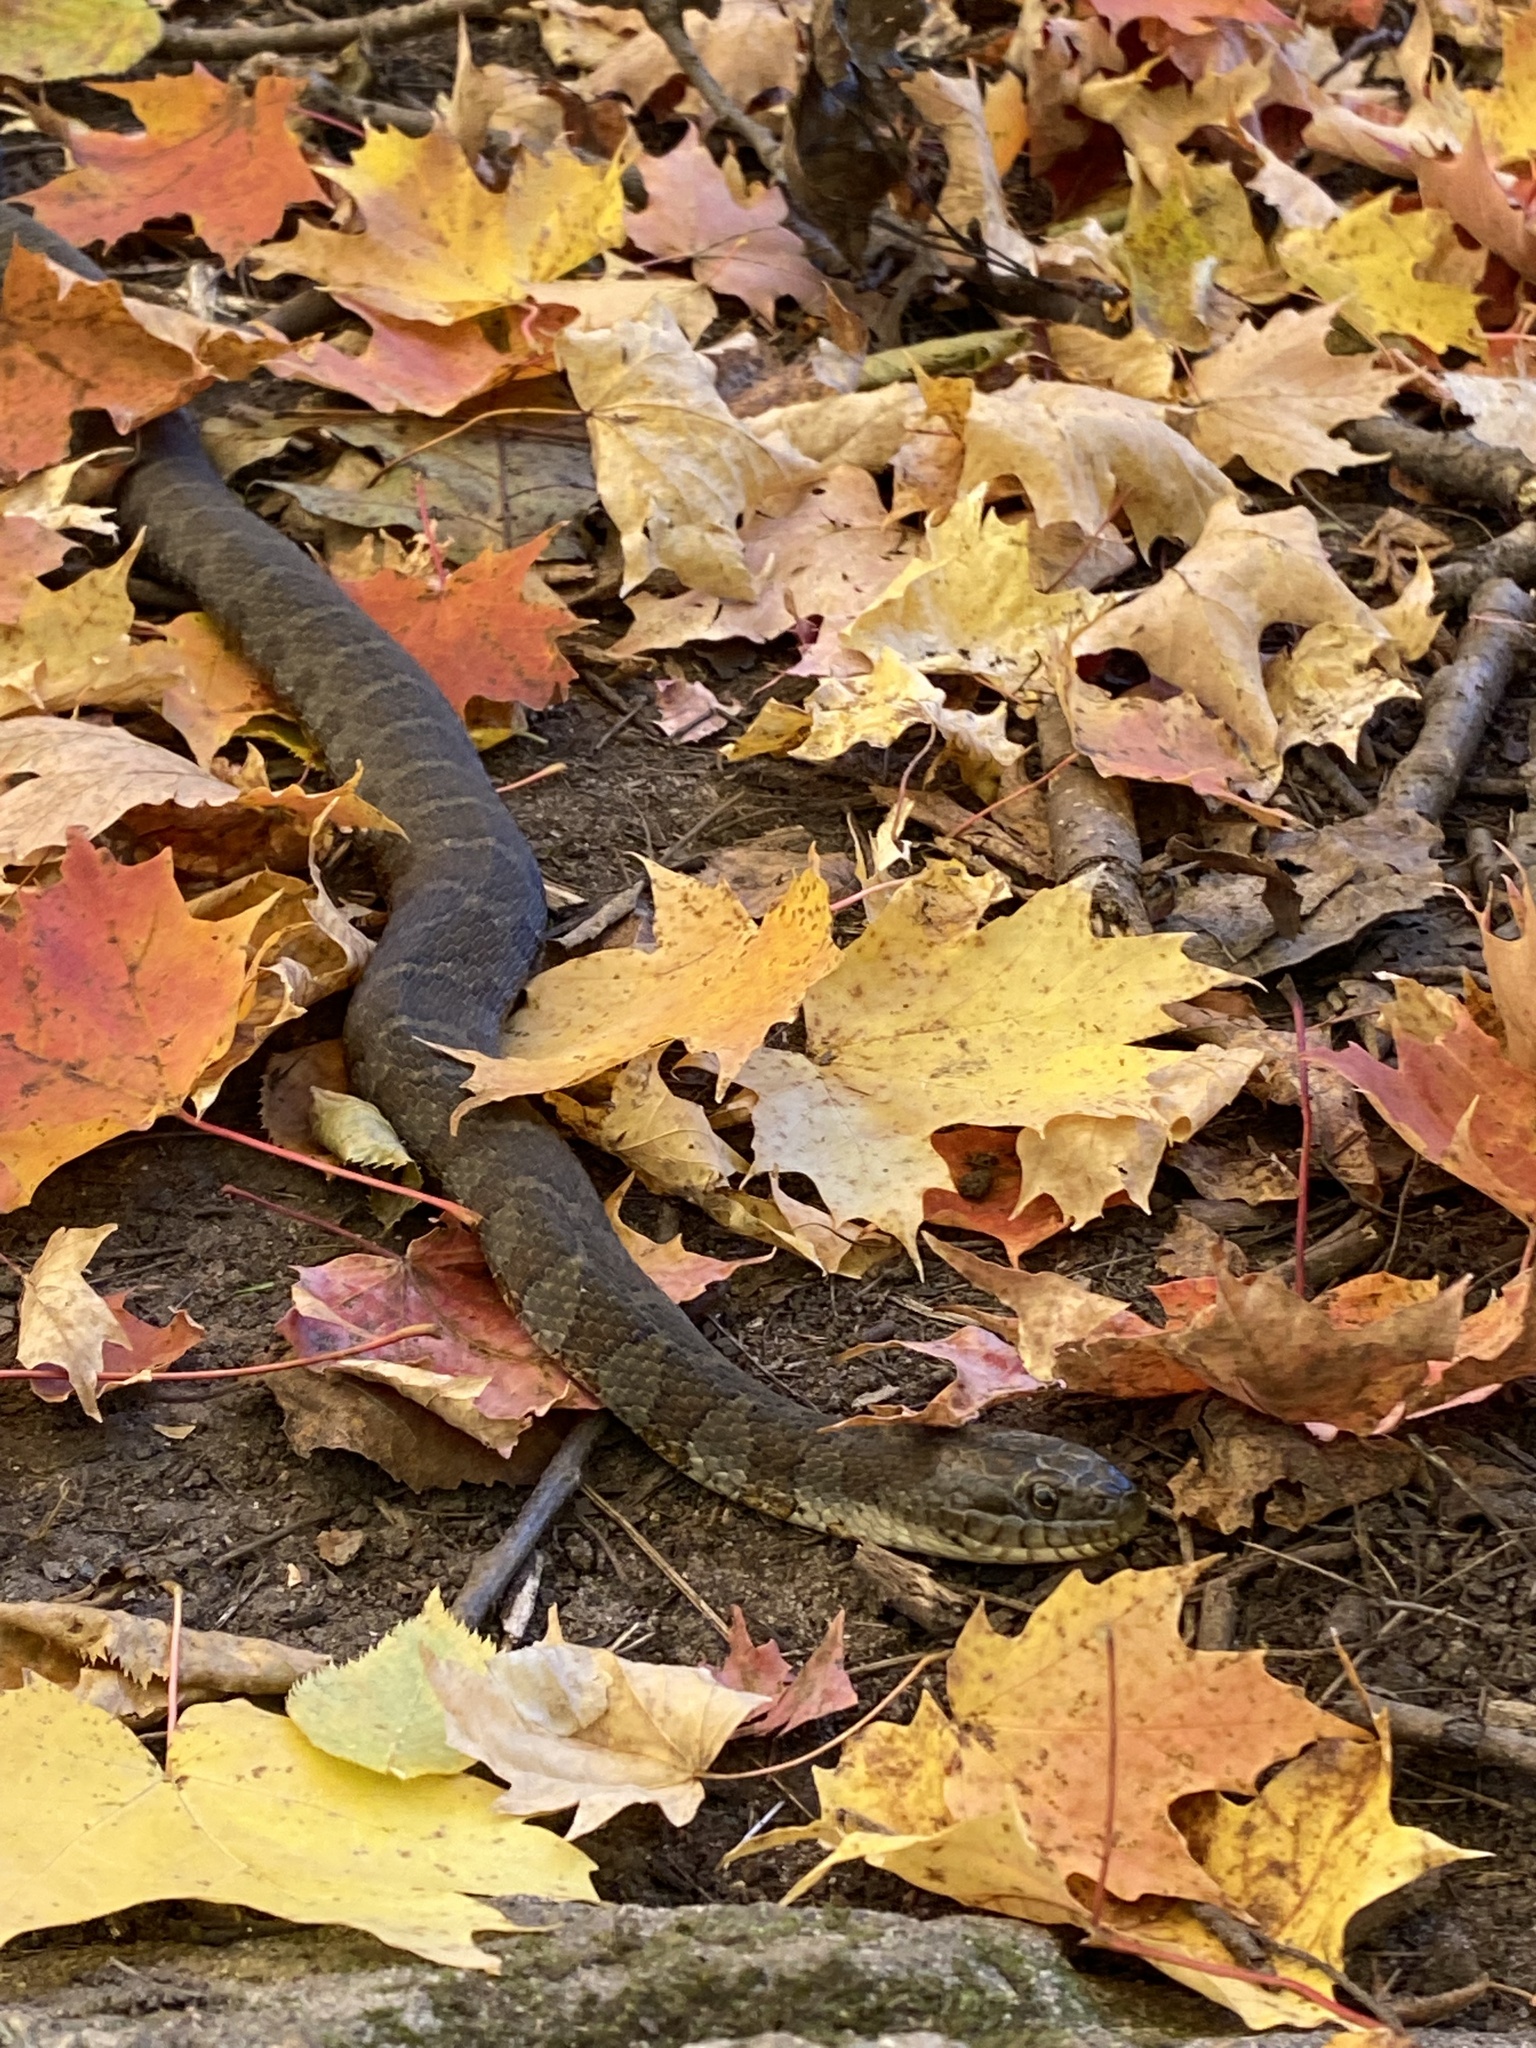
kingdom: Animalia
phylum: Chordata
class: Squamata
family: Colubridae
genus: Nerodia
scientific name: Nerodia sipedon
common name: Northern water snake
